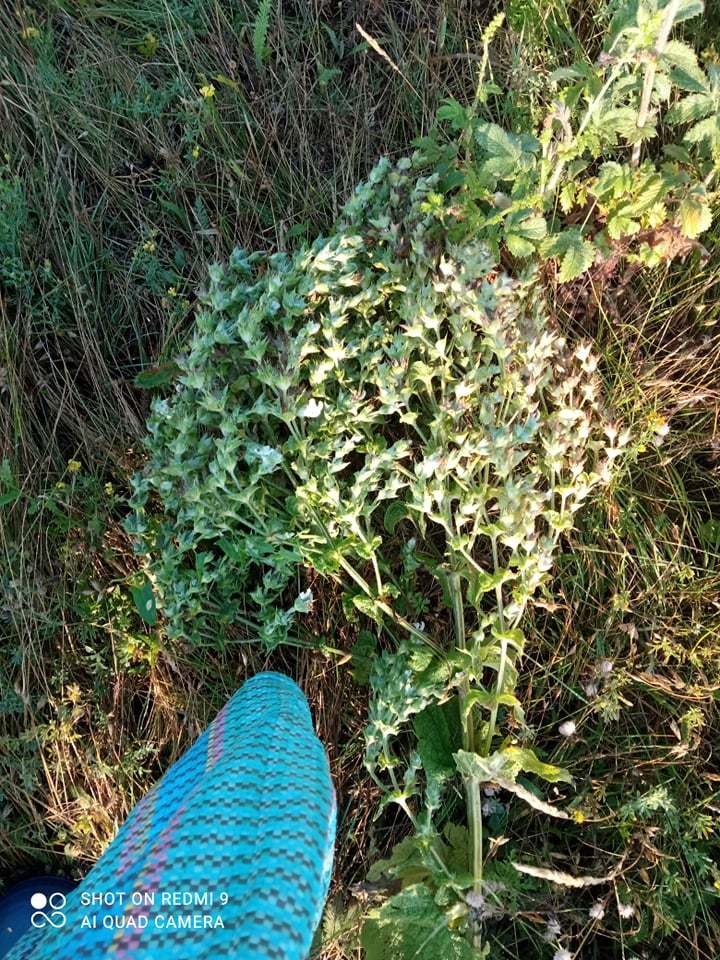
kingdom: Plantae
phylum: Tracheophyta
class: Magnoliopsida
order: Lamiales
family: Lamiaceae
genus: Salvia
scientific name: Salvia aethiopis
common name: Mediterranean sage
